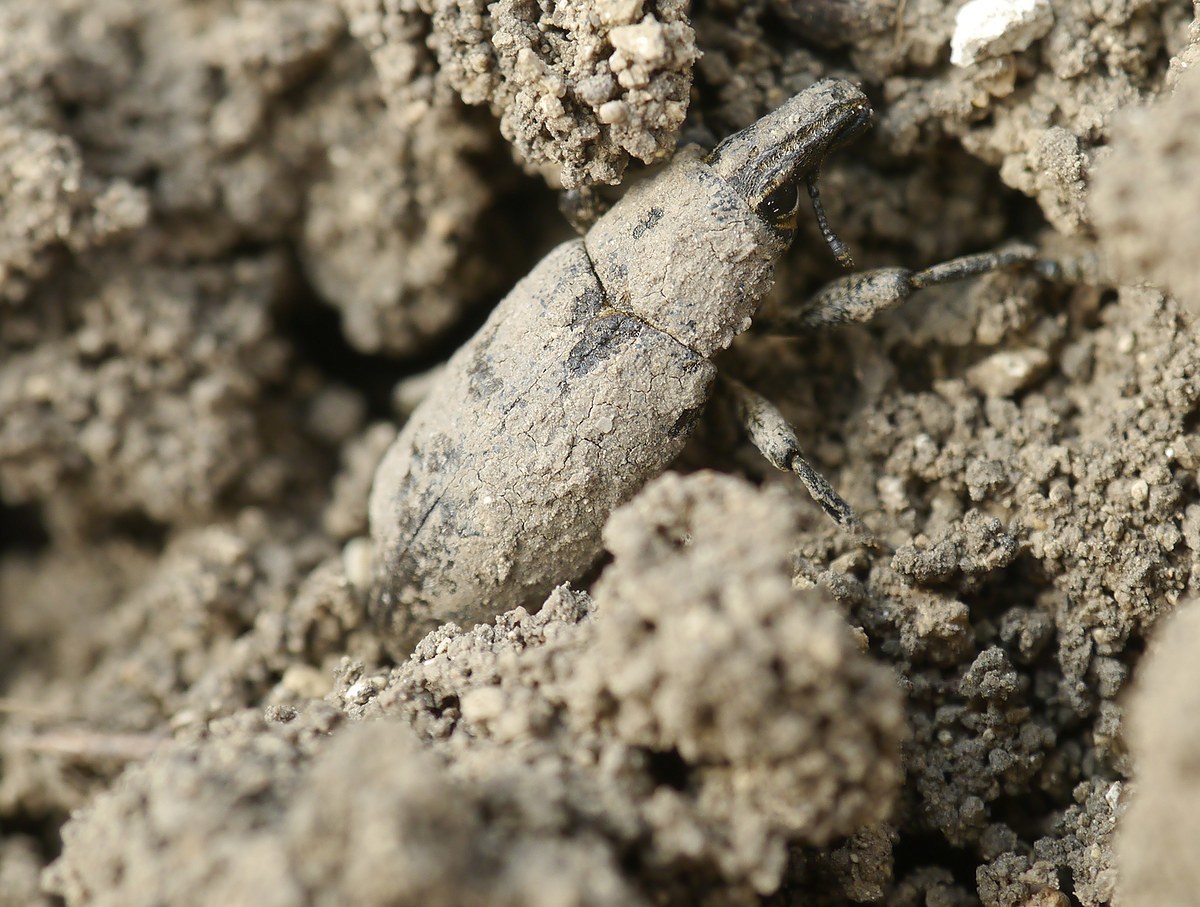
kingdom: Animalia
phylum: Arthropoda
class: Insecta
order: Coleoptera
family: Curculionidae
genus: Cleonis
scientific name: Cleonis pigra
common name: Large thistle weevil
